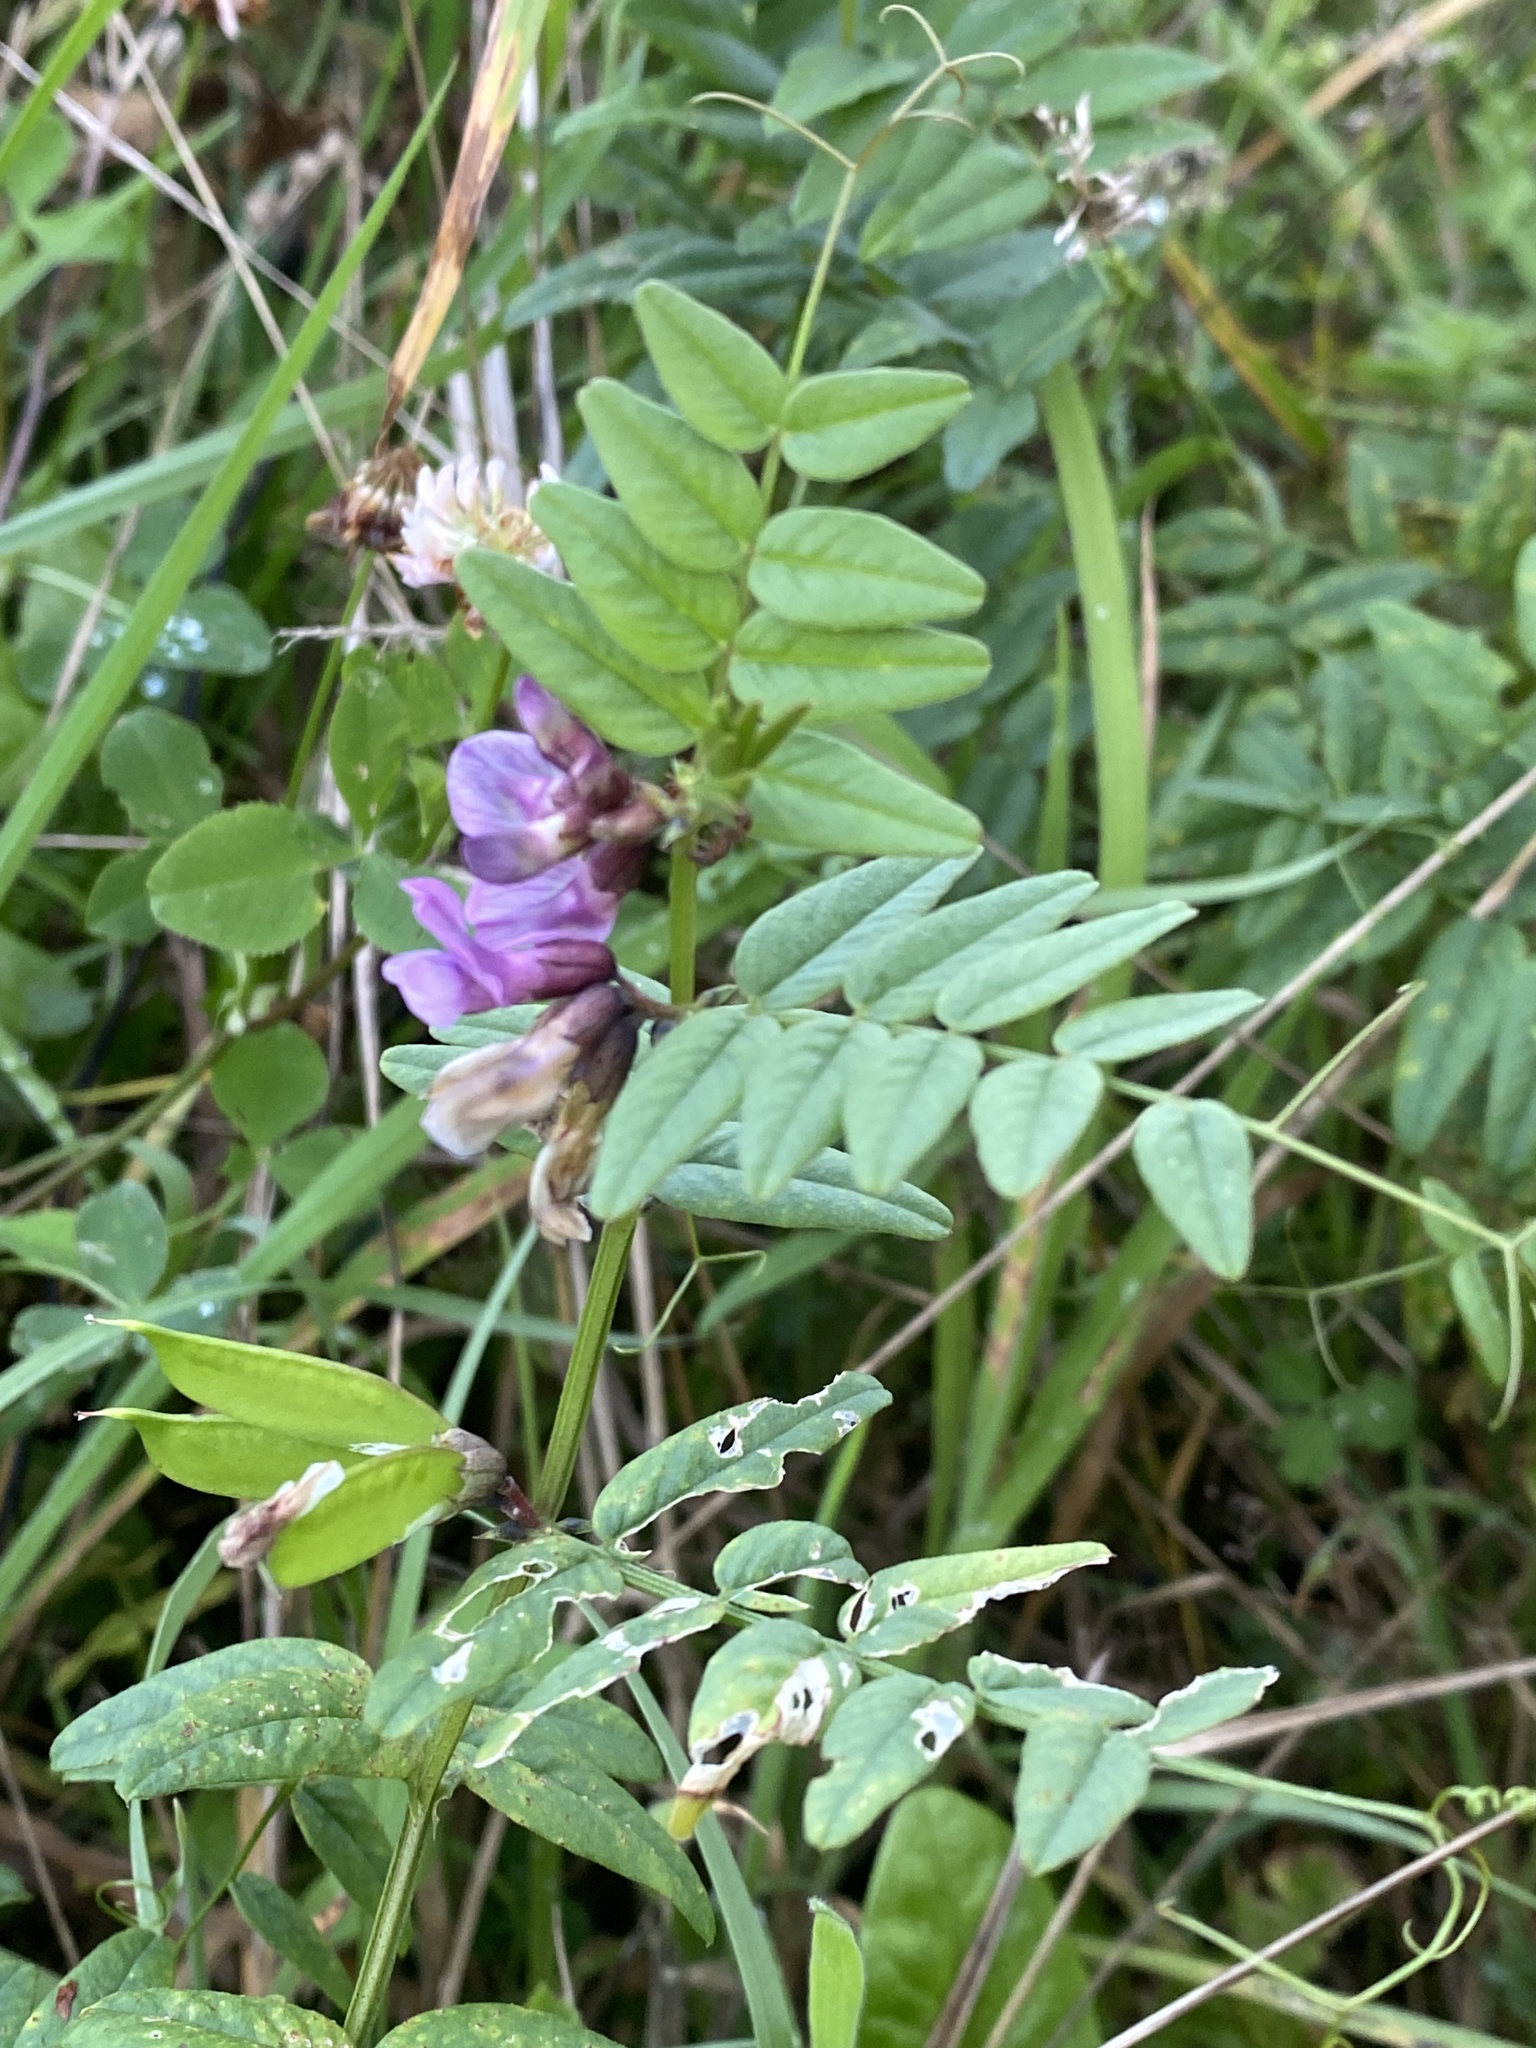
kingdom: Plantae
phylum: Tracheophyta
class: Magnoliopsida
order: Fabales
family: Fabaceae
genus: Vicia
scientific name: Vicia sepium
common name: Bush vetch
